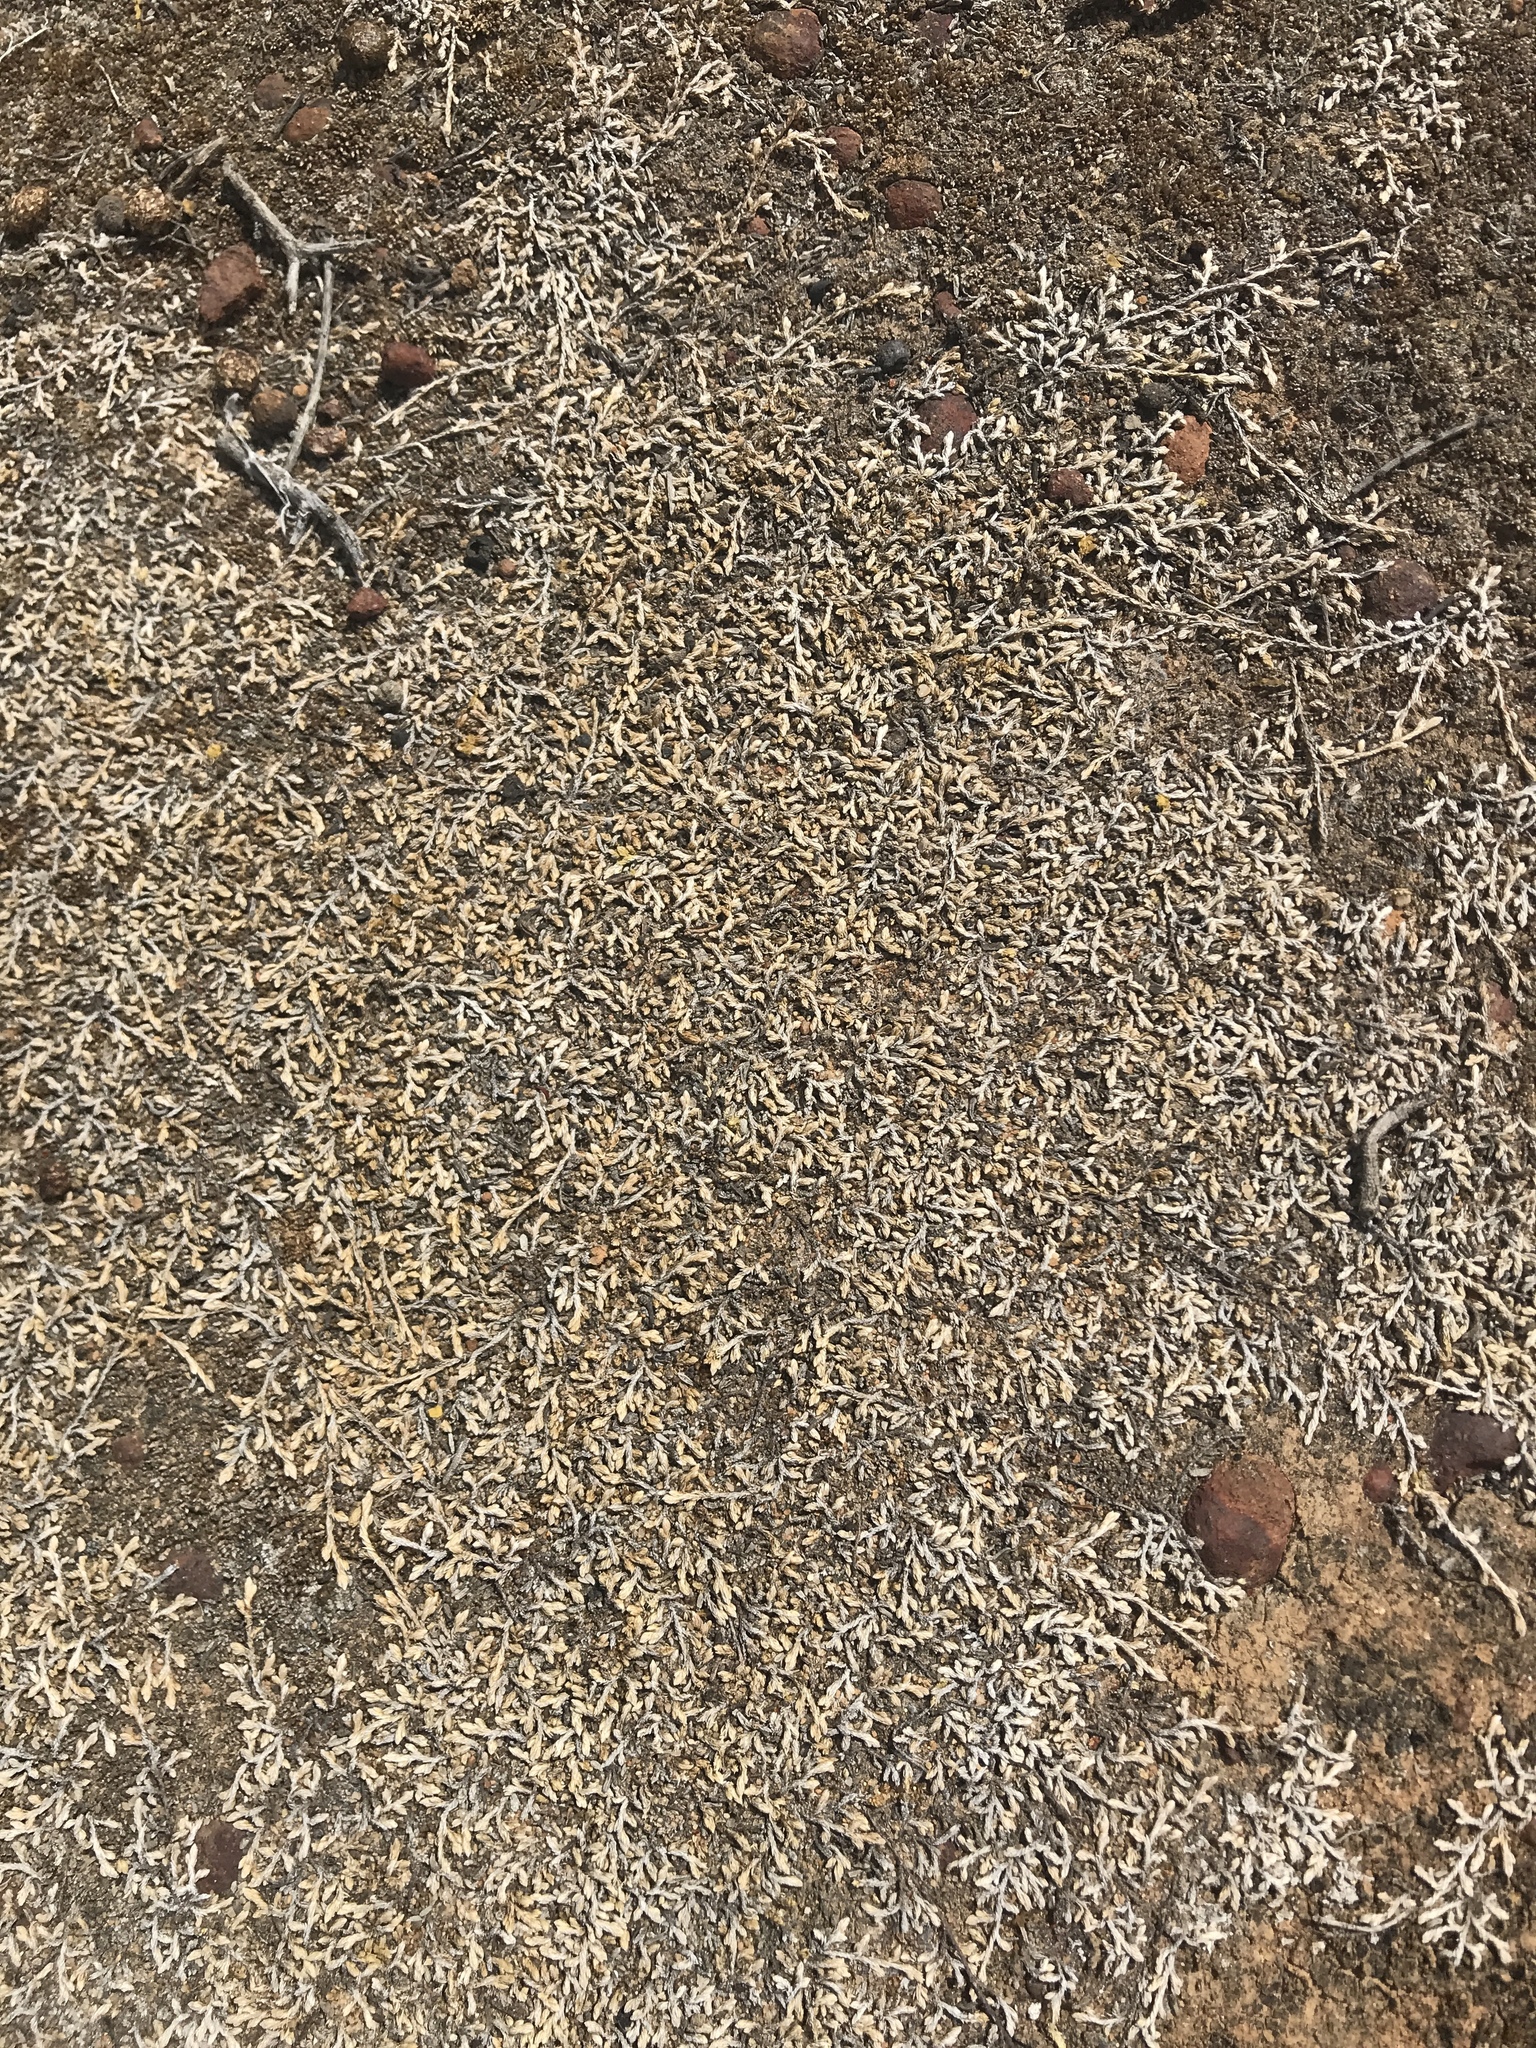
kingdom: Plantae
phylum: Tracheophyta
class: Lycopodiopsida
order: Selaginellales
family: Selaginellaceae
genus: Selaginella
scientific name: Selaginella cinerascens
